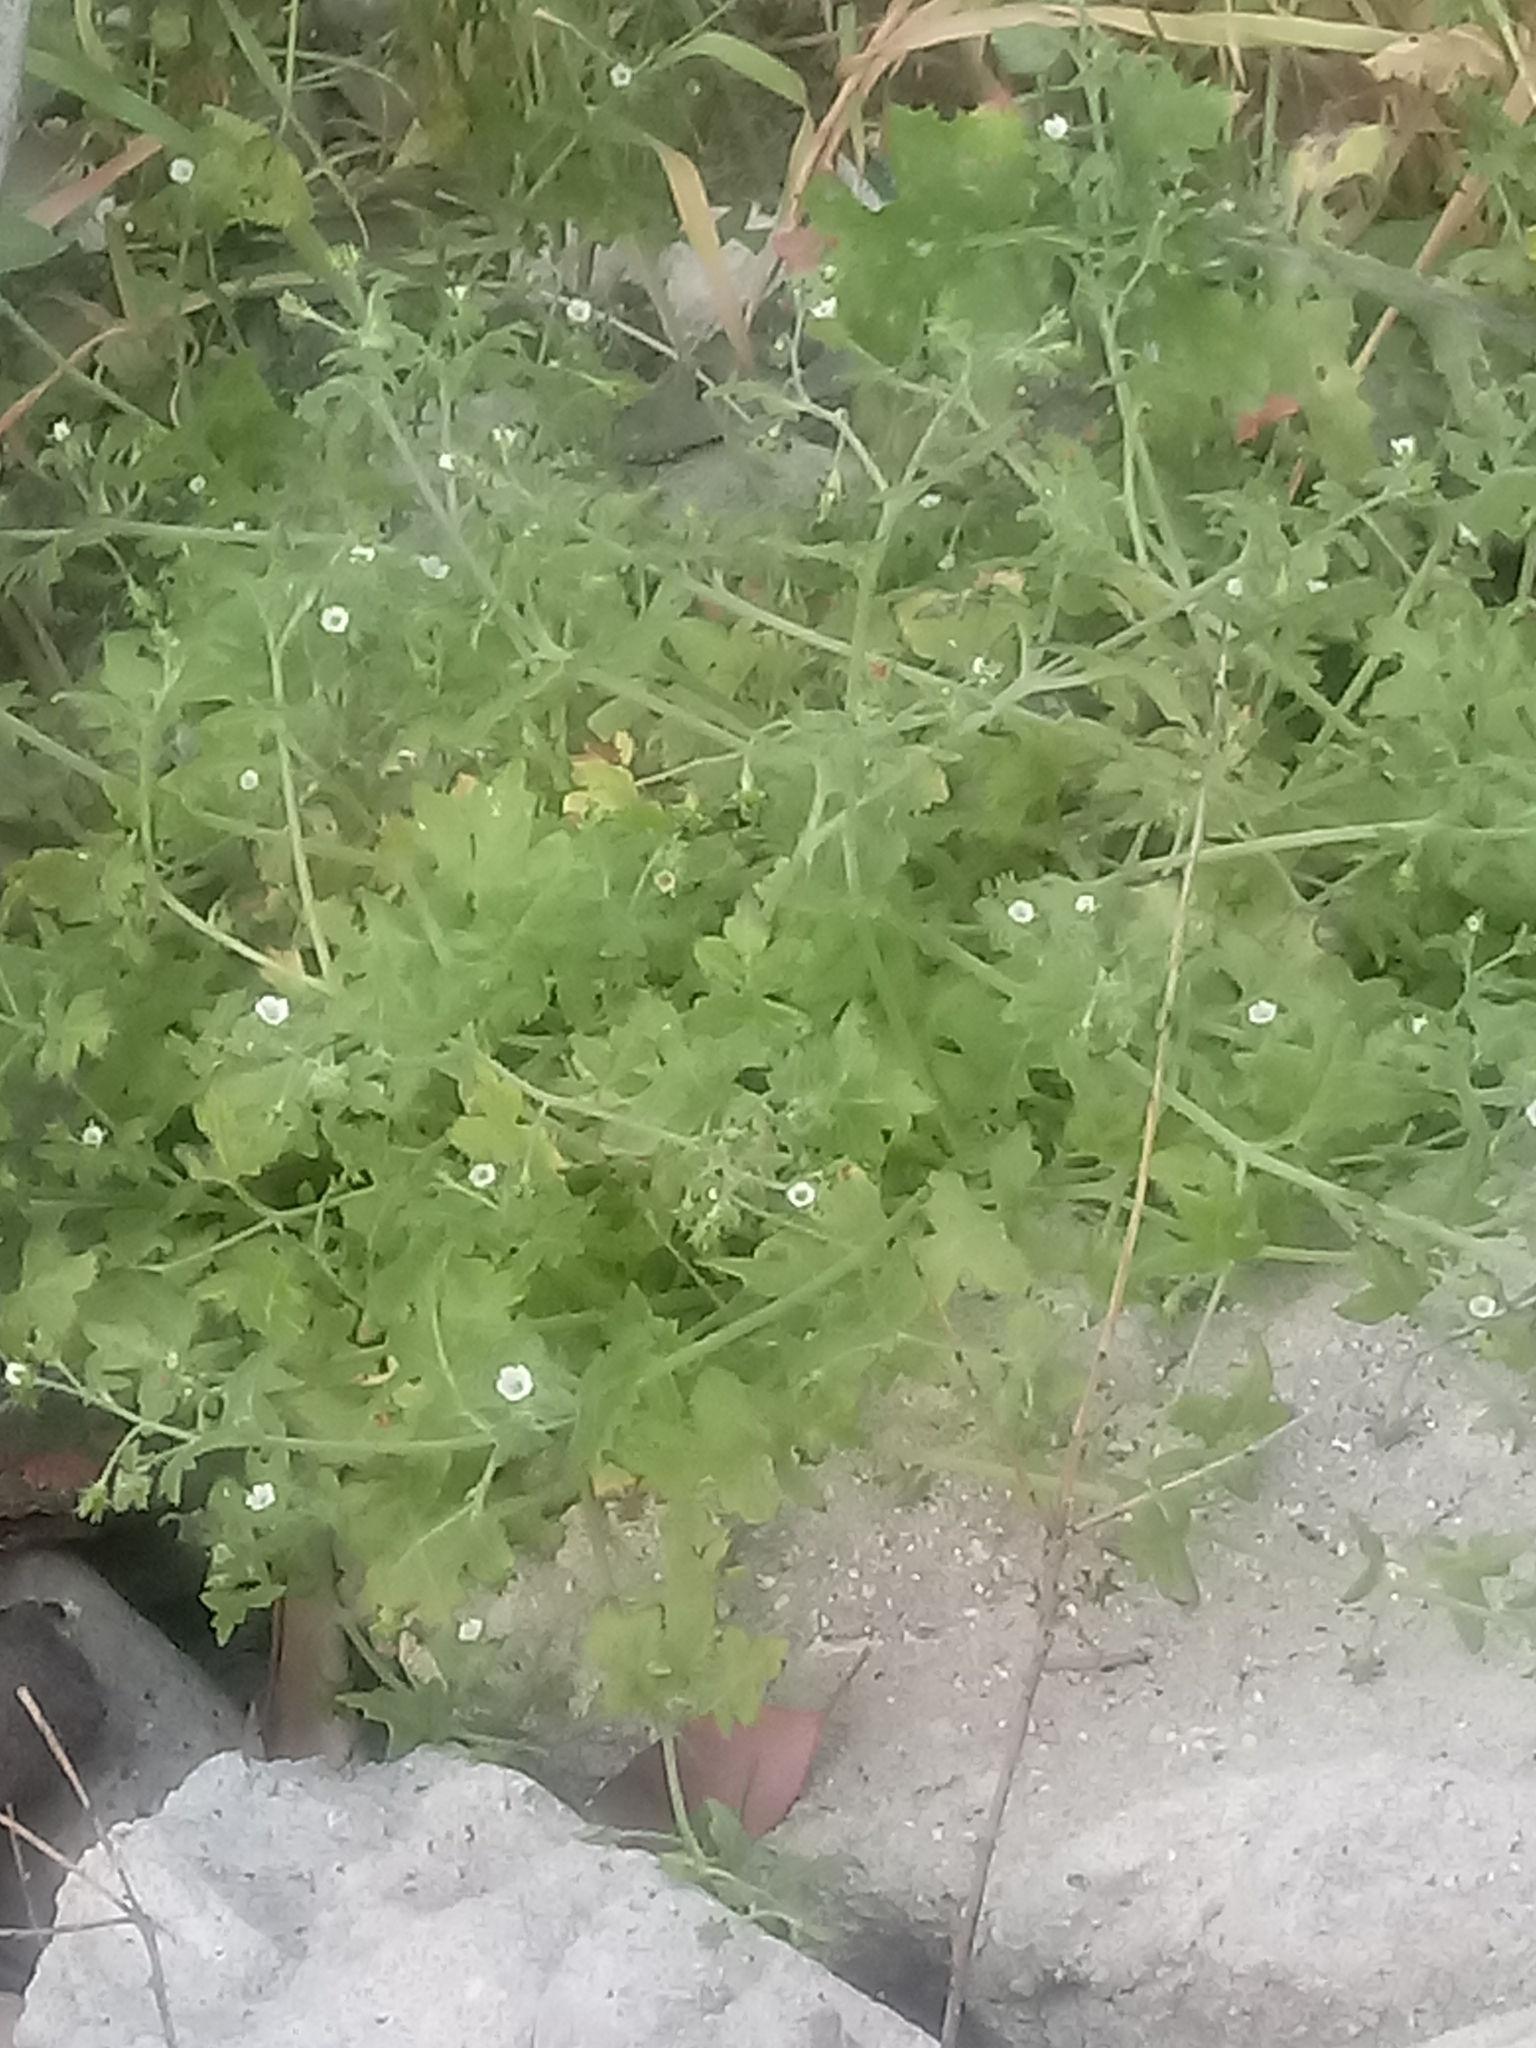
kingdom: Plantae
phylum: Tracheophyta
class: Magnoliopsida
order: Boraginales
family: Hydrophyllaceae
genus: Pholistoma
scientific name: Pholistoma racemosum
